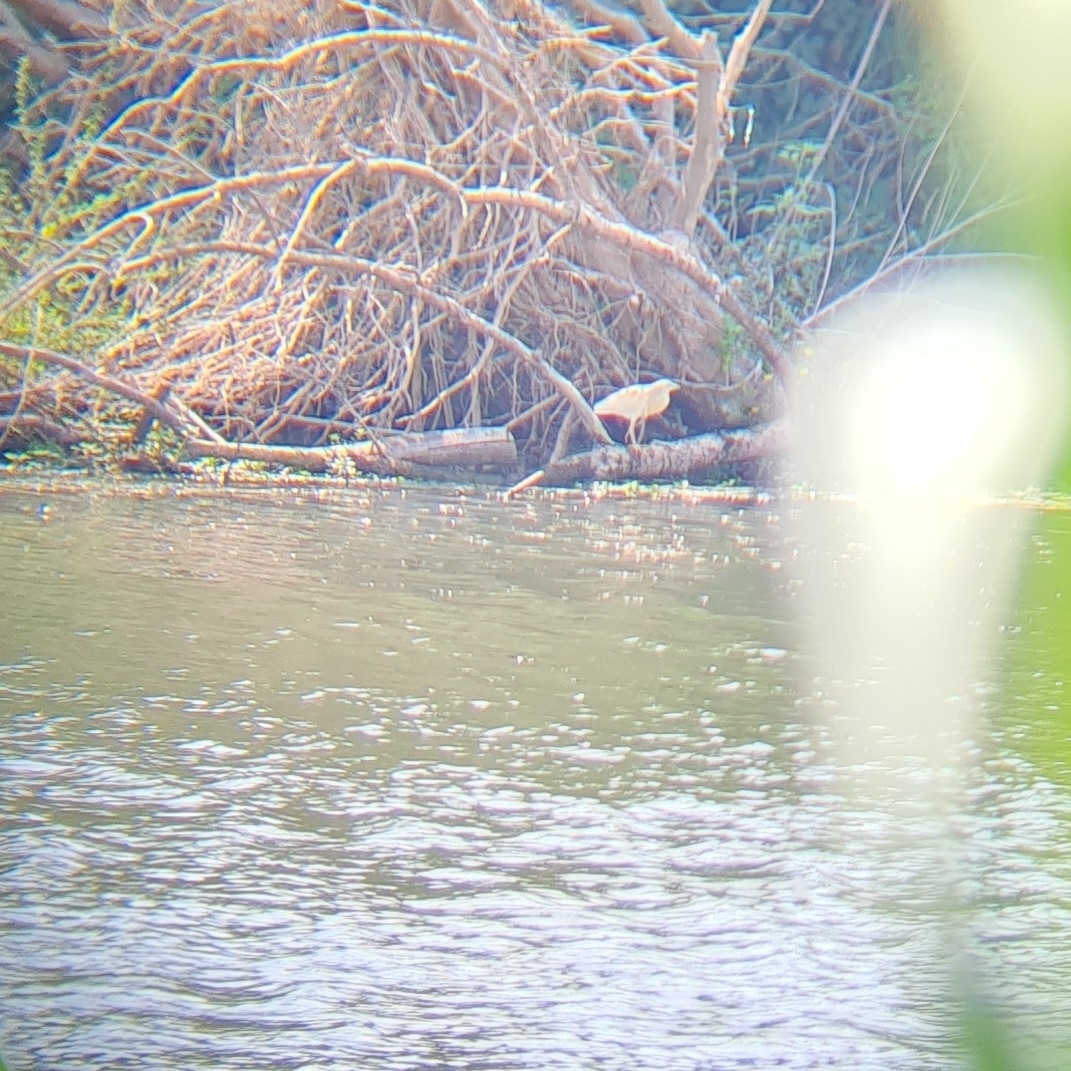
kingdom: Animalia
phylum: Chordata
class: Aves
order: Pelecaniformes
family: Ardeidae
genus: Ardeola
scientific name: Ardeola ralloides
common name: Squacco heron
